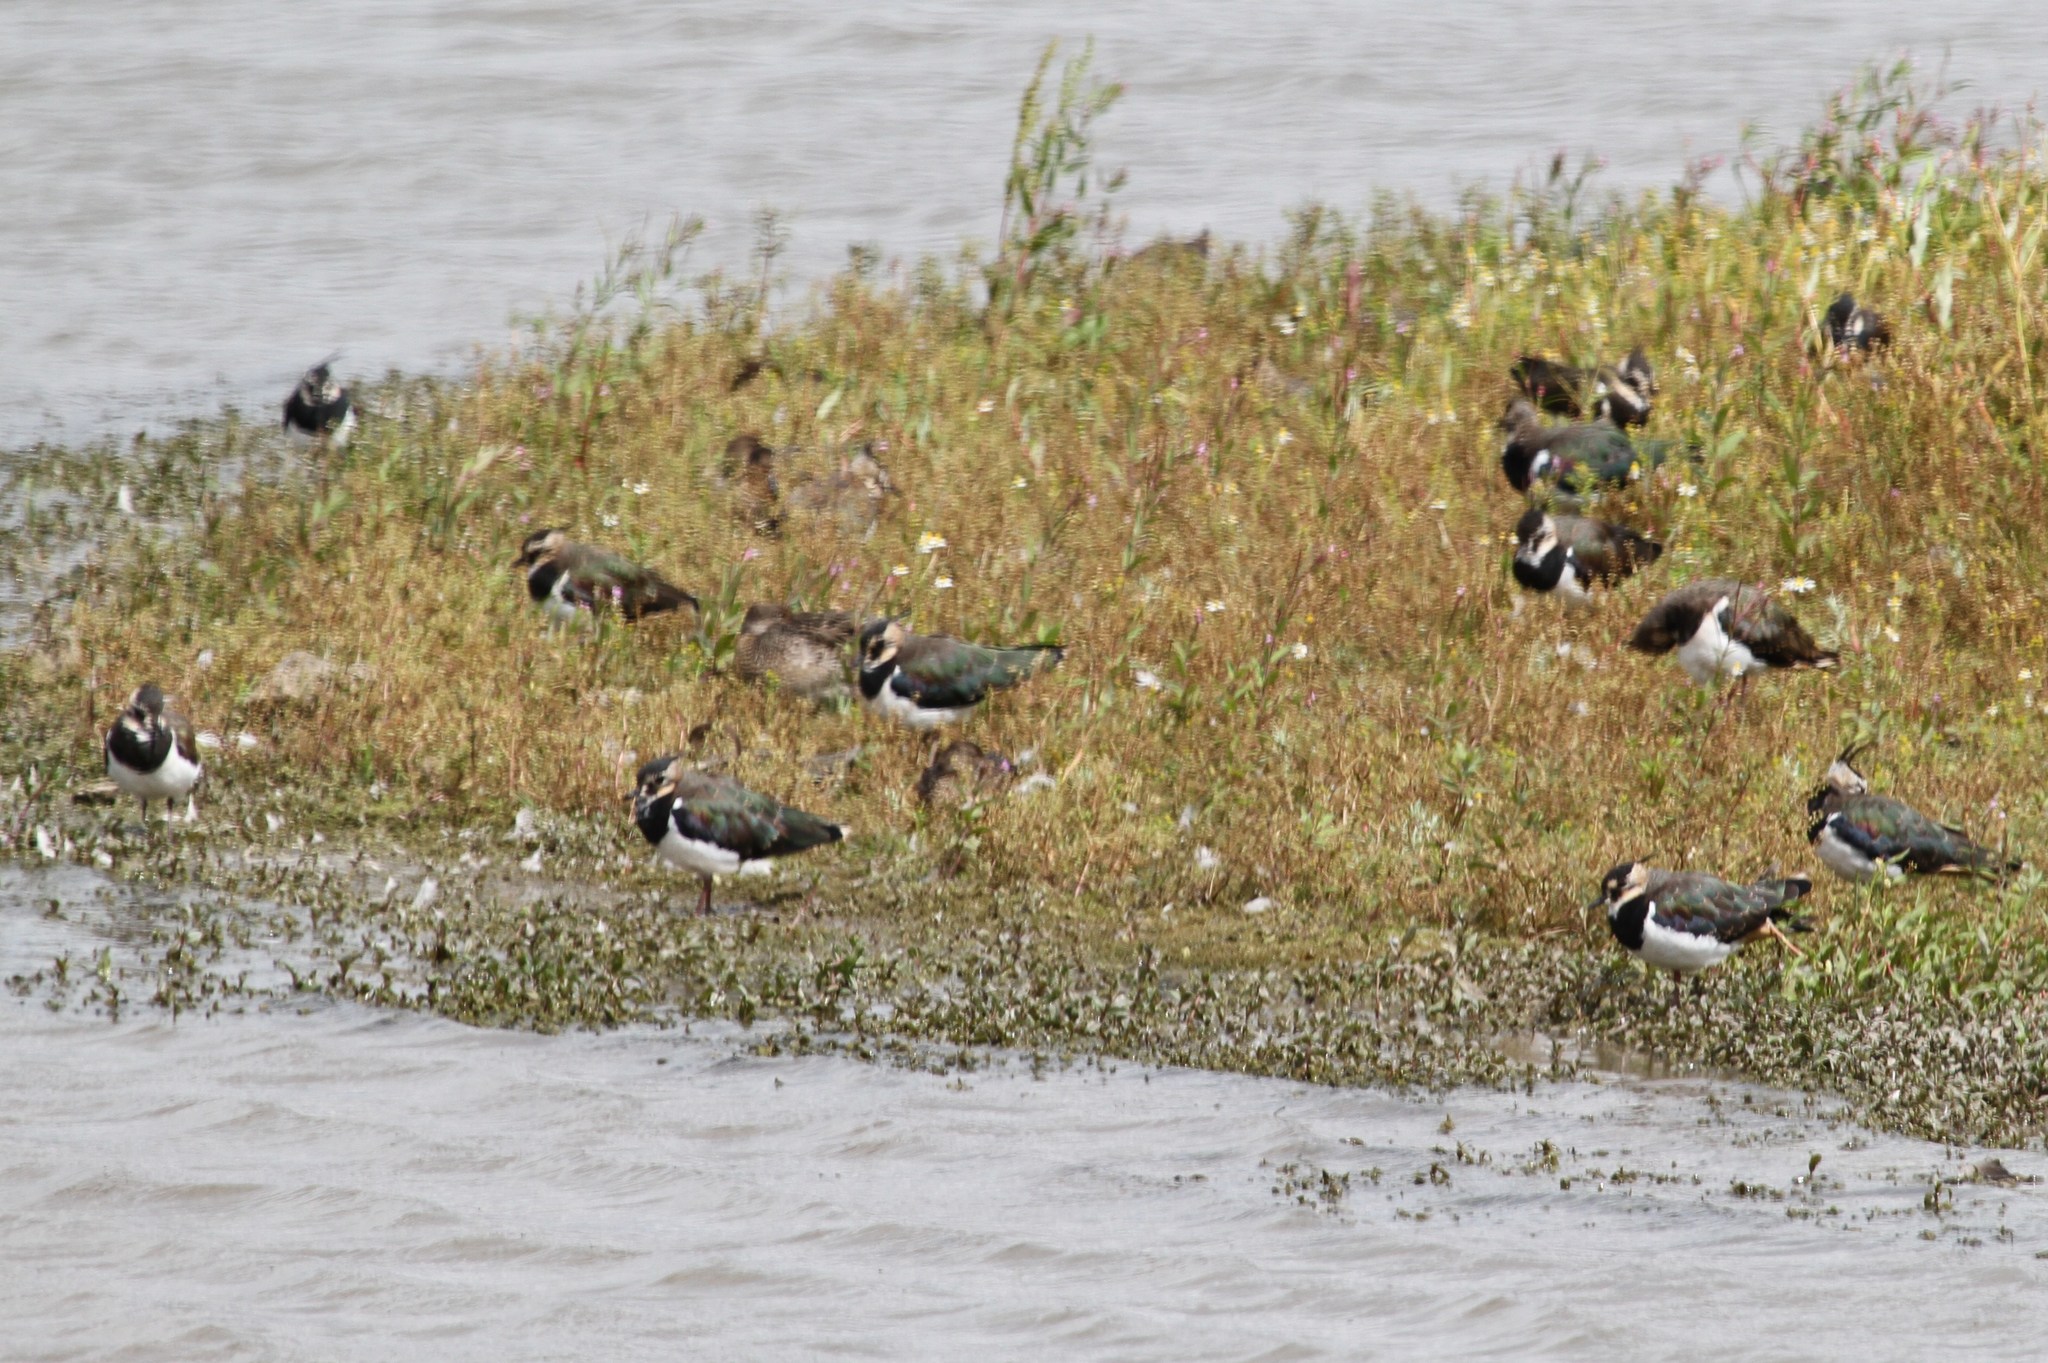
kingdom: Animalia
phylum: Chordata
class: Aves
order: Charadriiformes
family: Charadriidae
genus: Vanellus
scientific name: Vanellus vanellus
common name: Northern lapwing
